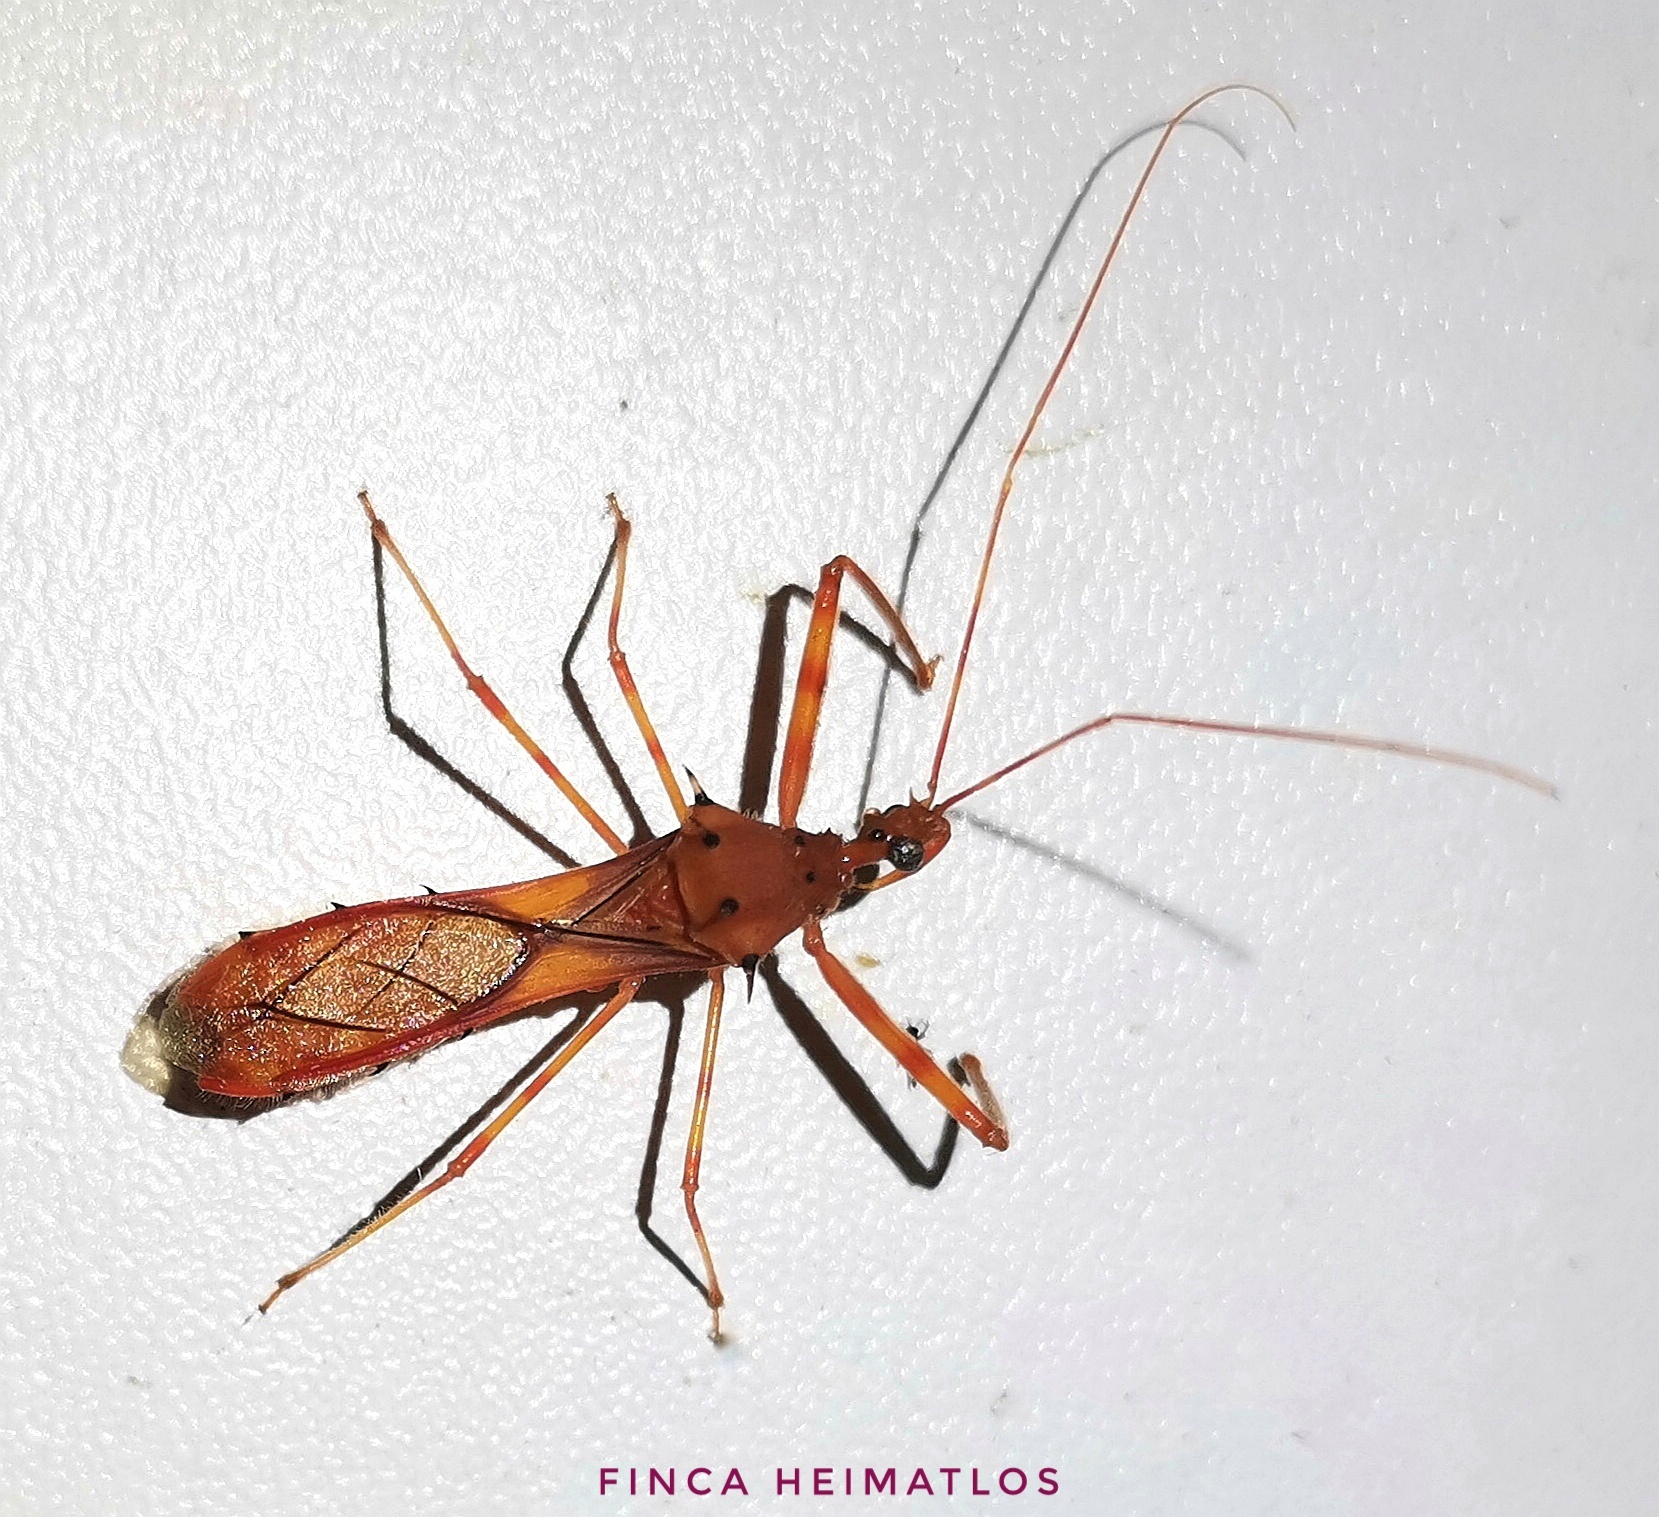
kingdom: Animalia
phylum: Arthropoda
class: Insecta
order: Hemiptera
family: Reduviidae
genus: Heza
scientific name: Heza aurantia
